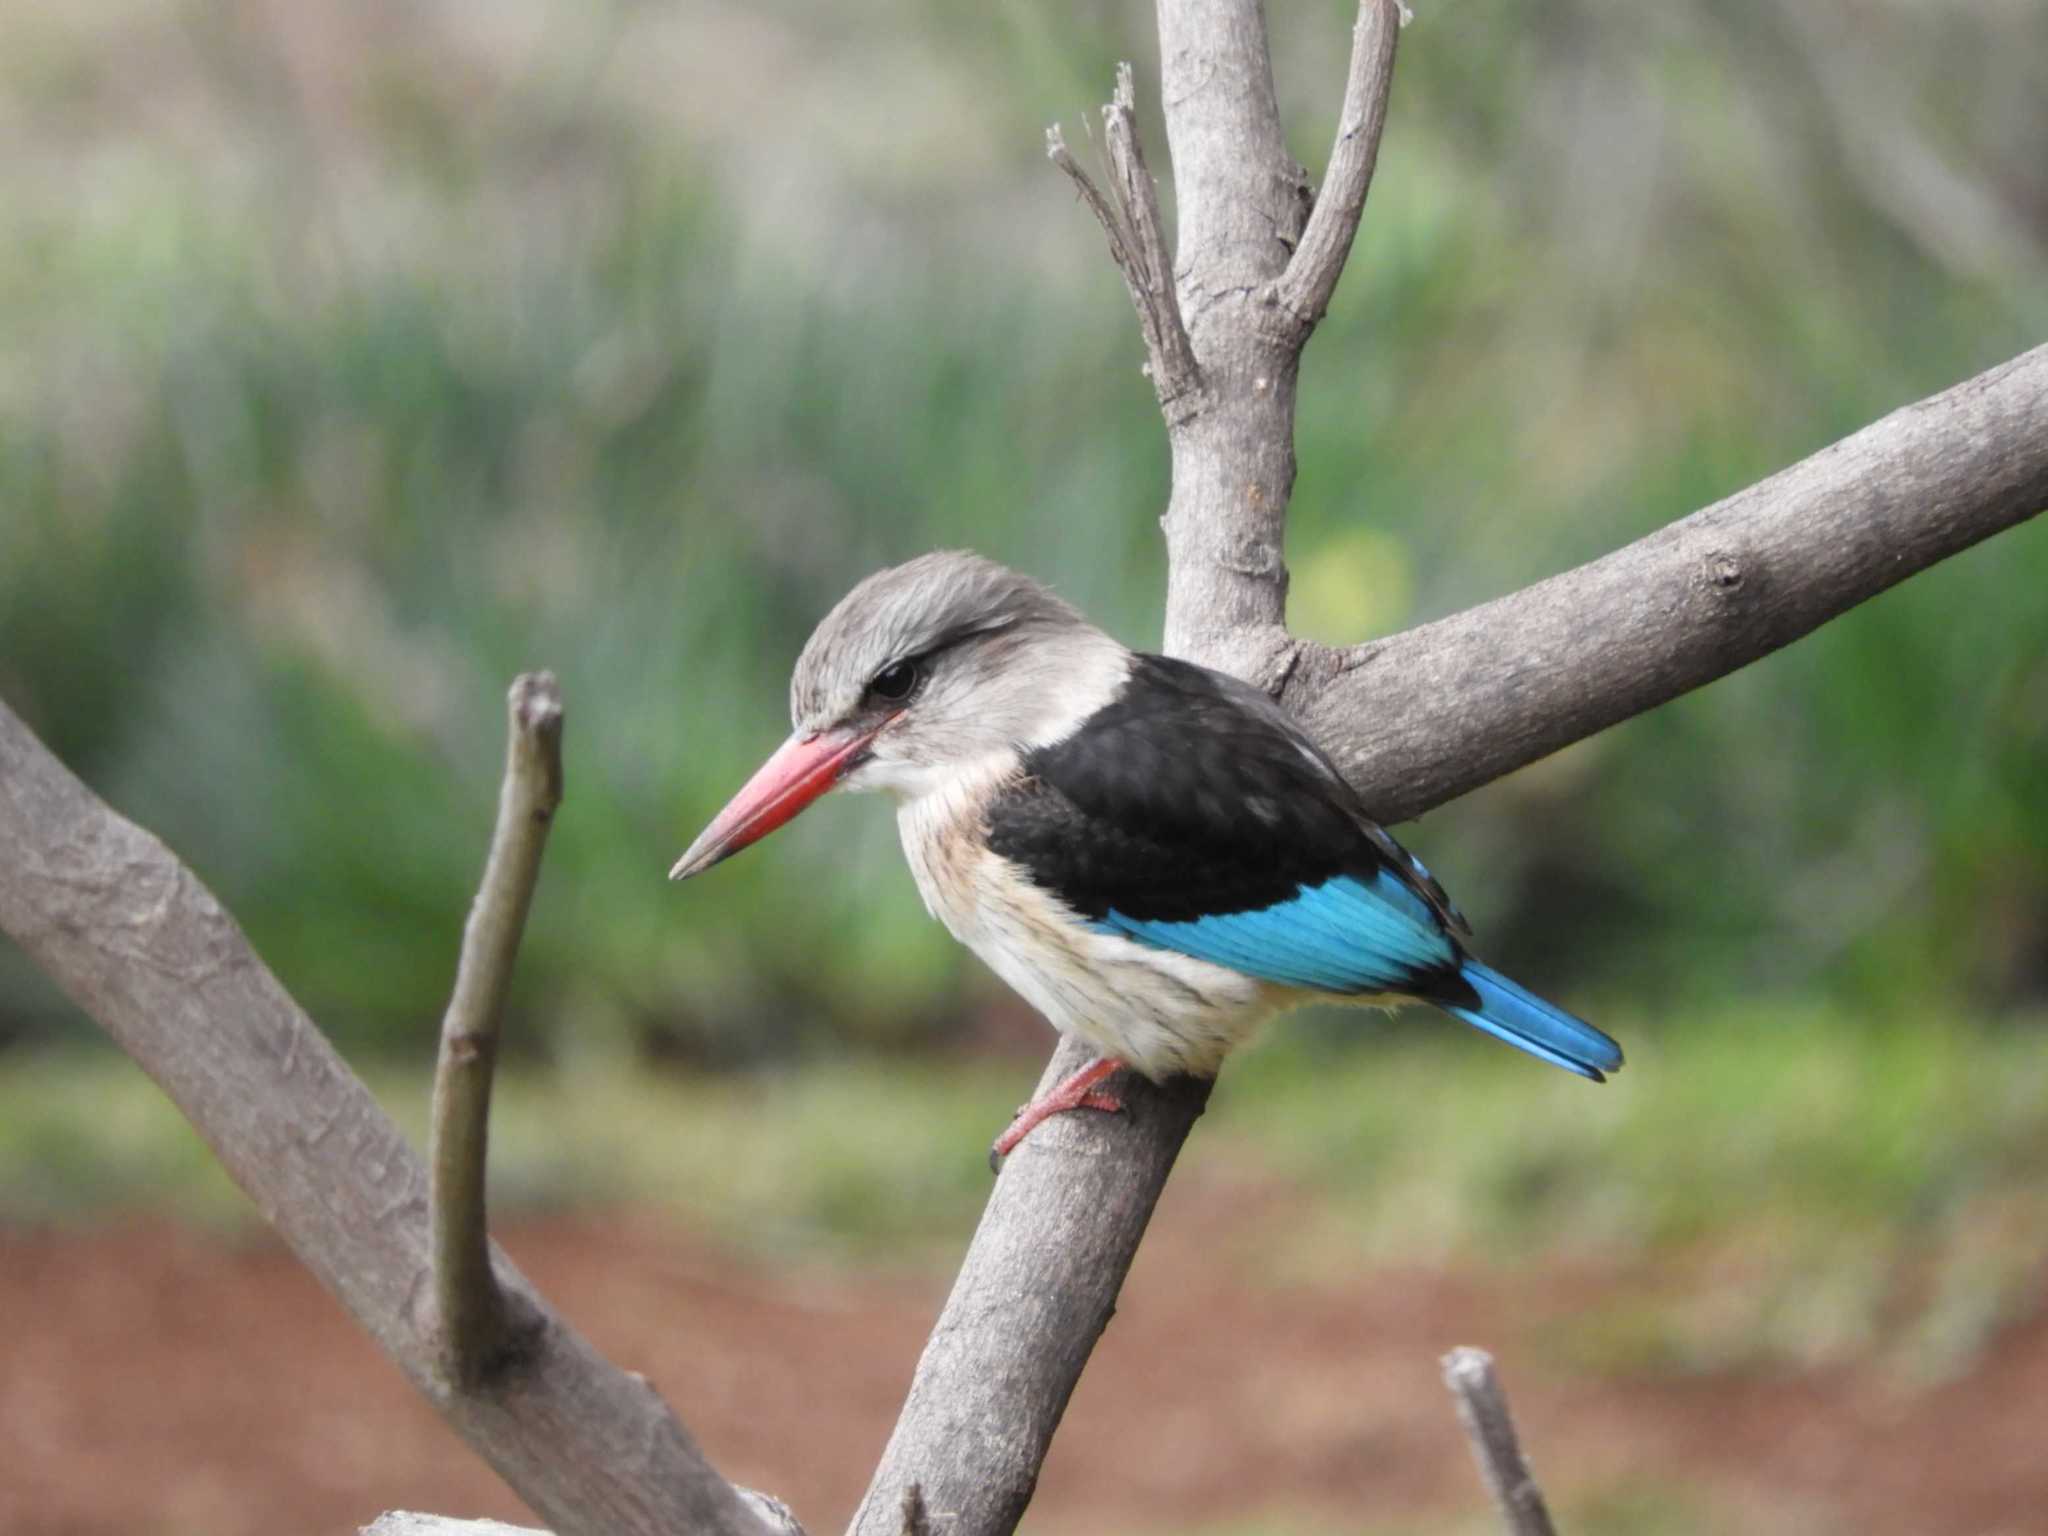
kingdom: Animalia
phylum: Chordata
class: Aves
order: Coraciiformes
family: Alcedinidae
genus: Halcyon
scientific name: Halcyon albiventris
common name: Brown-hooded kingfisher
